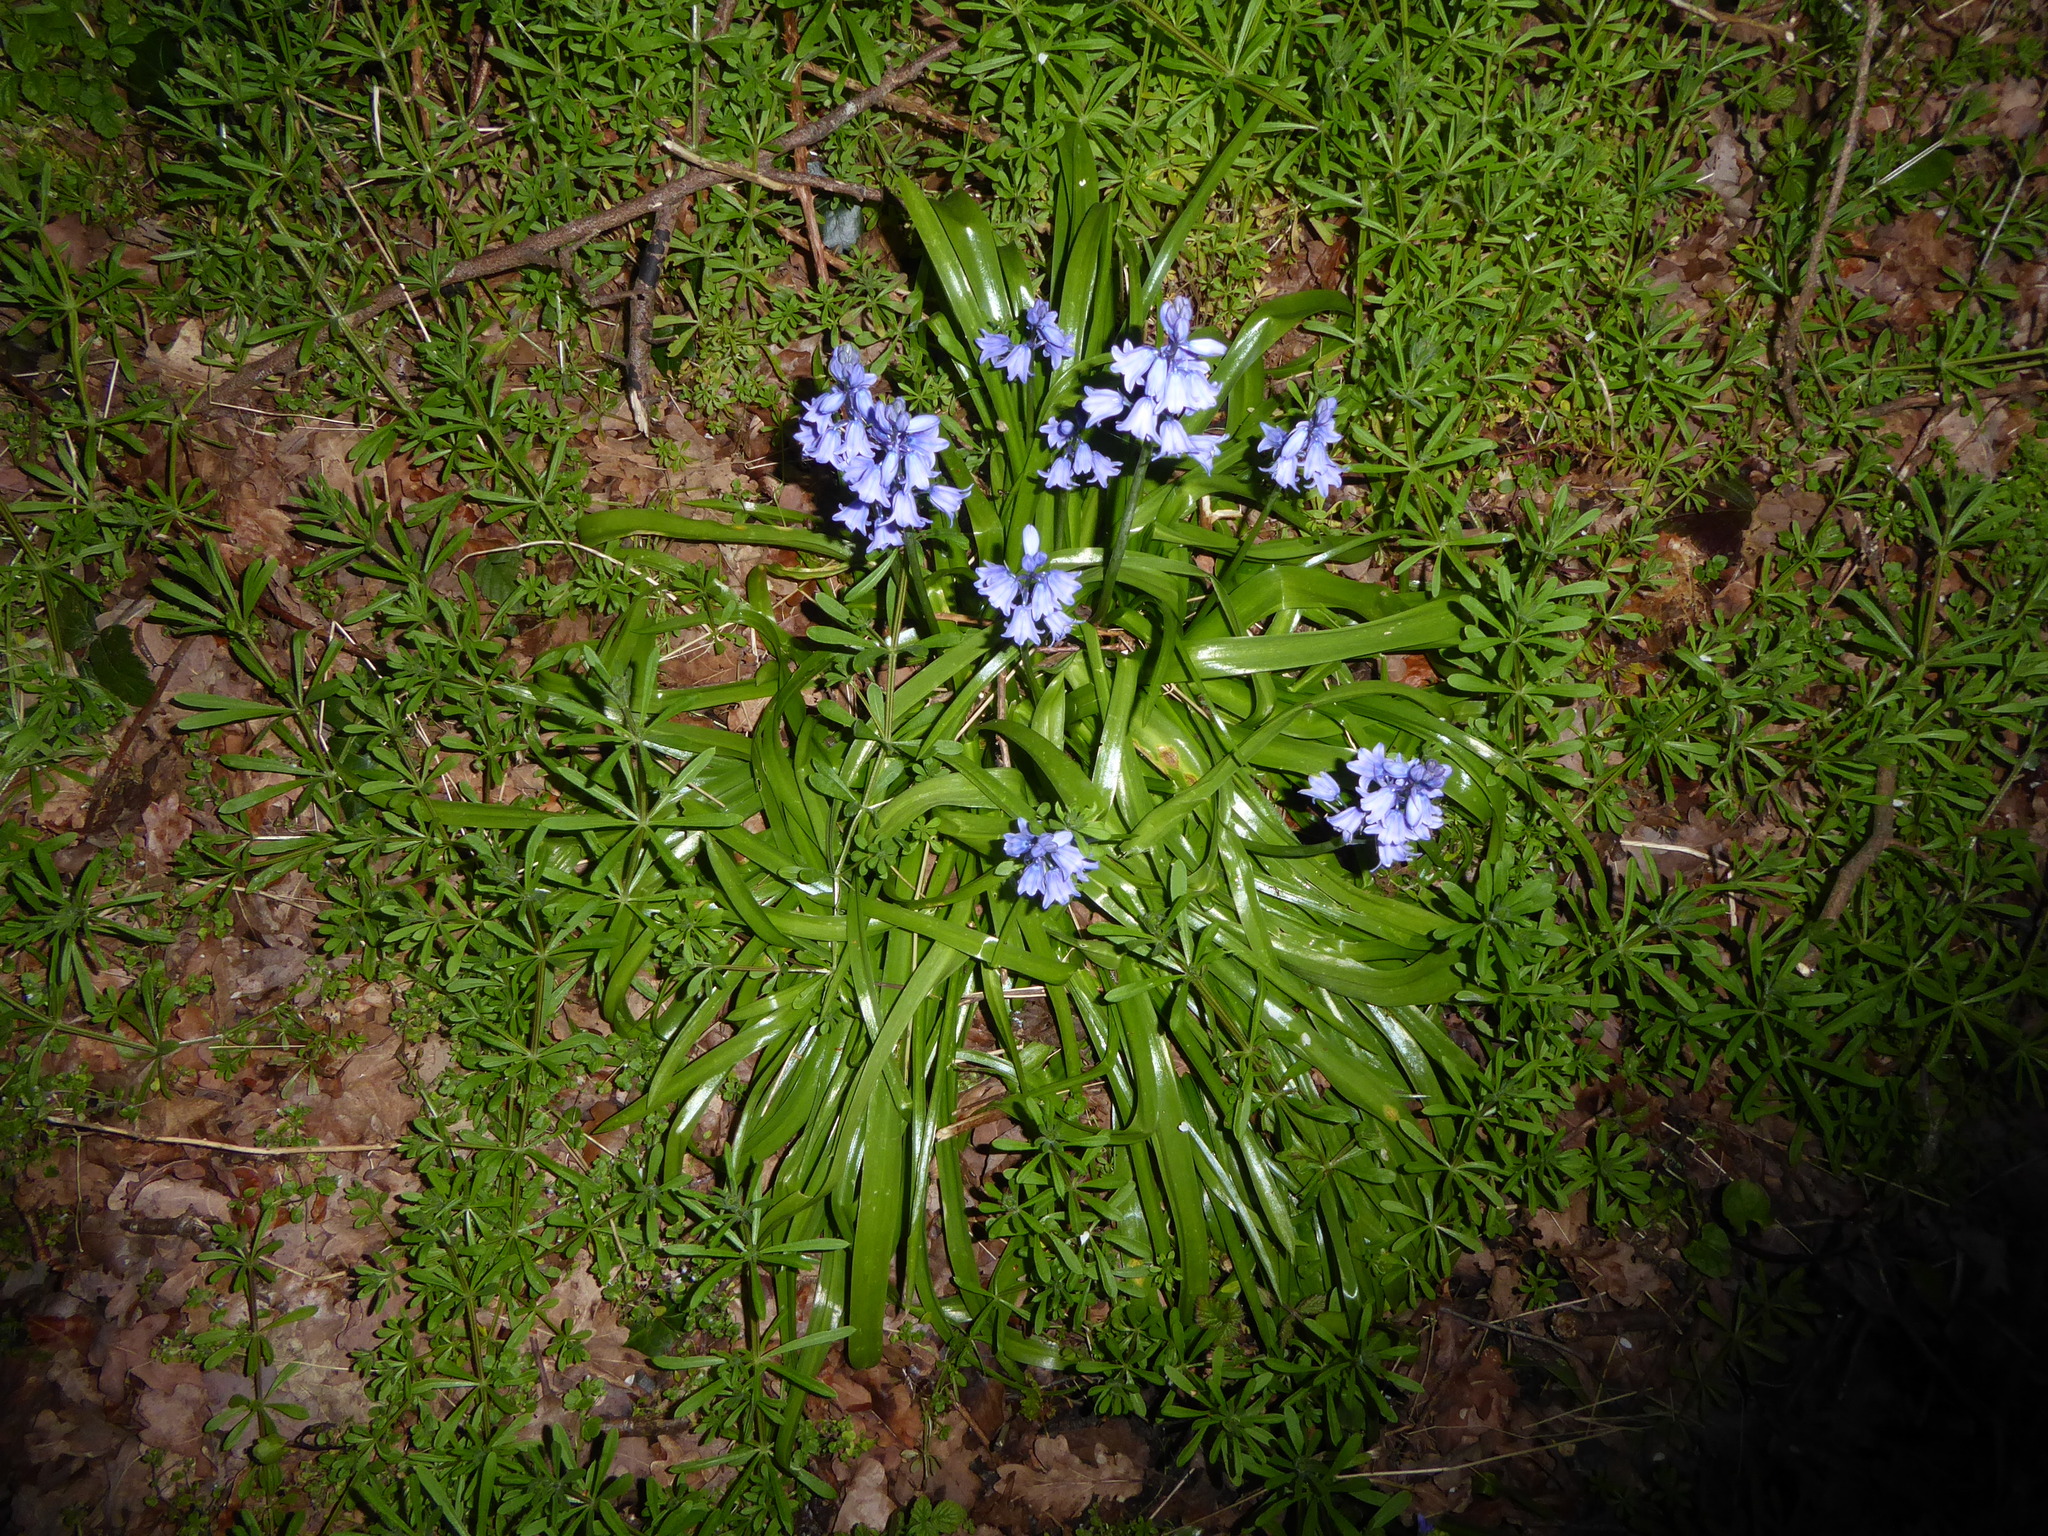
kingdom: Plantae
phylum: Tracheophyta
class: Liliopsida
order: Asparagales
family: Asparagaceae
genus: Hyacinthoides
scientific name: Hyacinthoides massartiana
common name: Hyacinthoides
